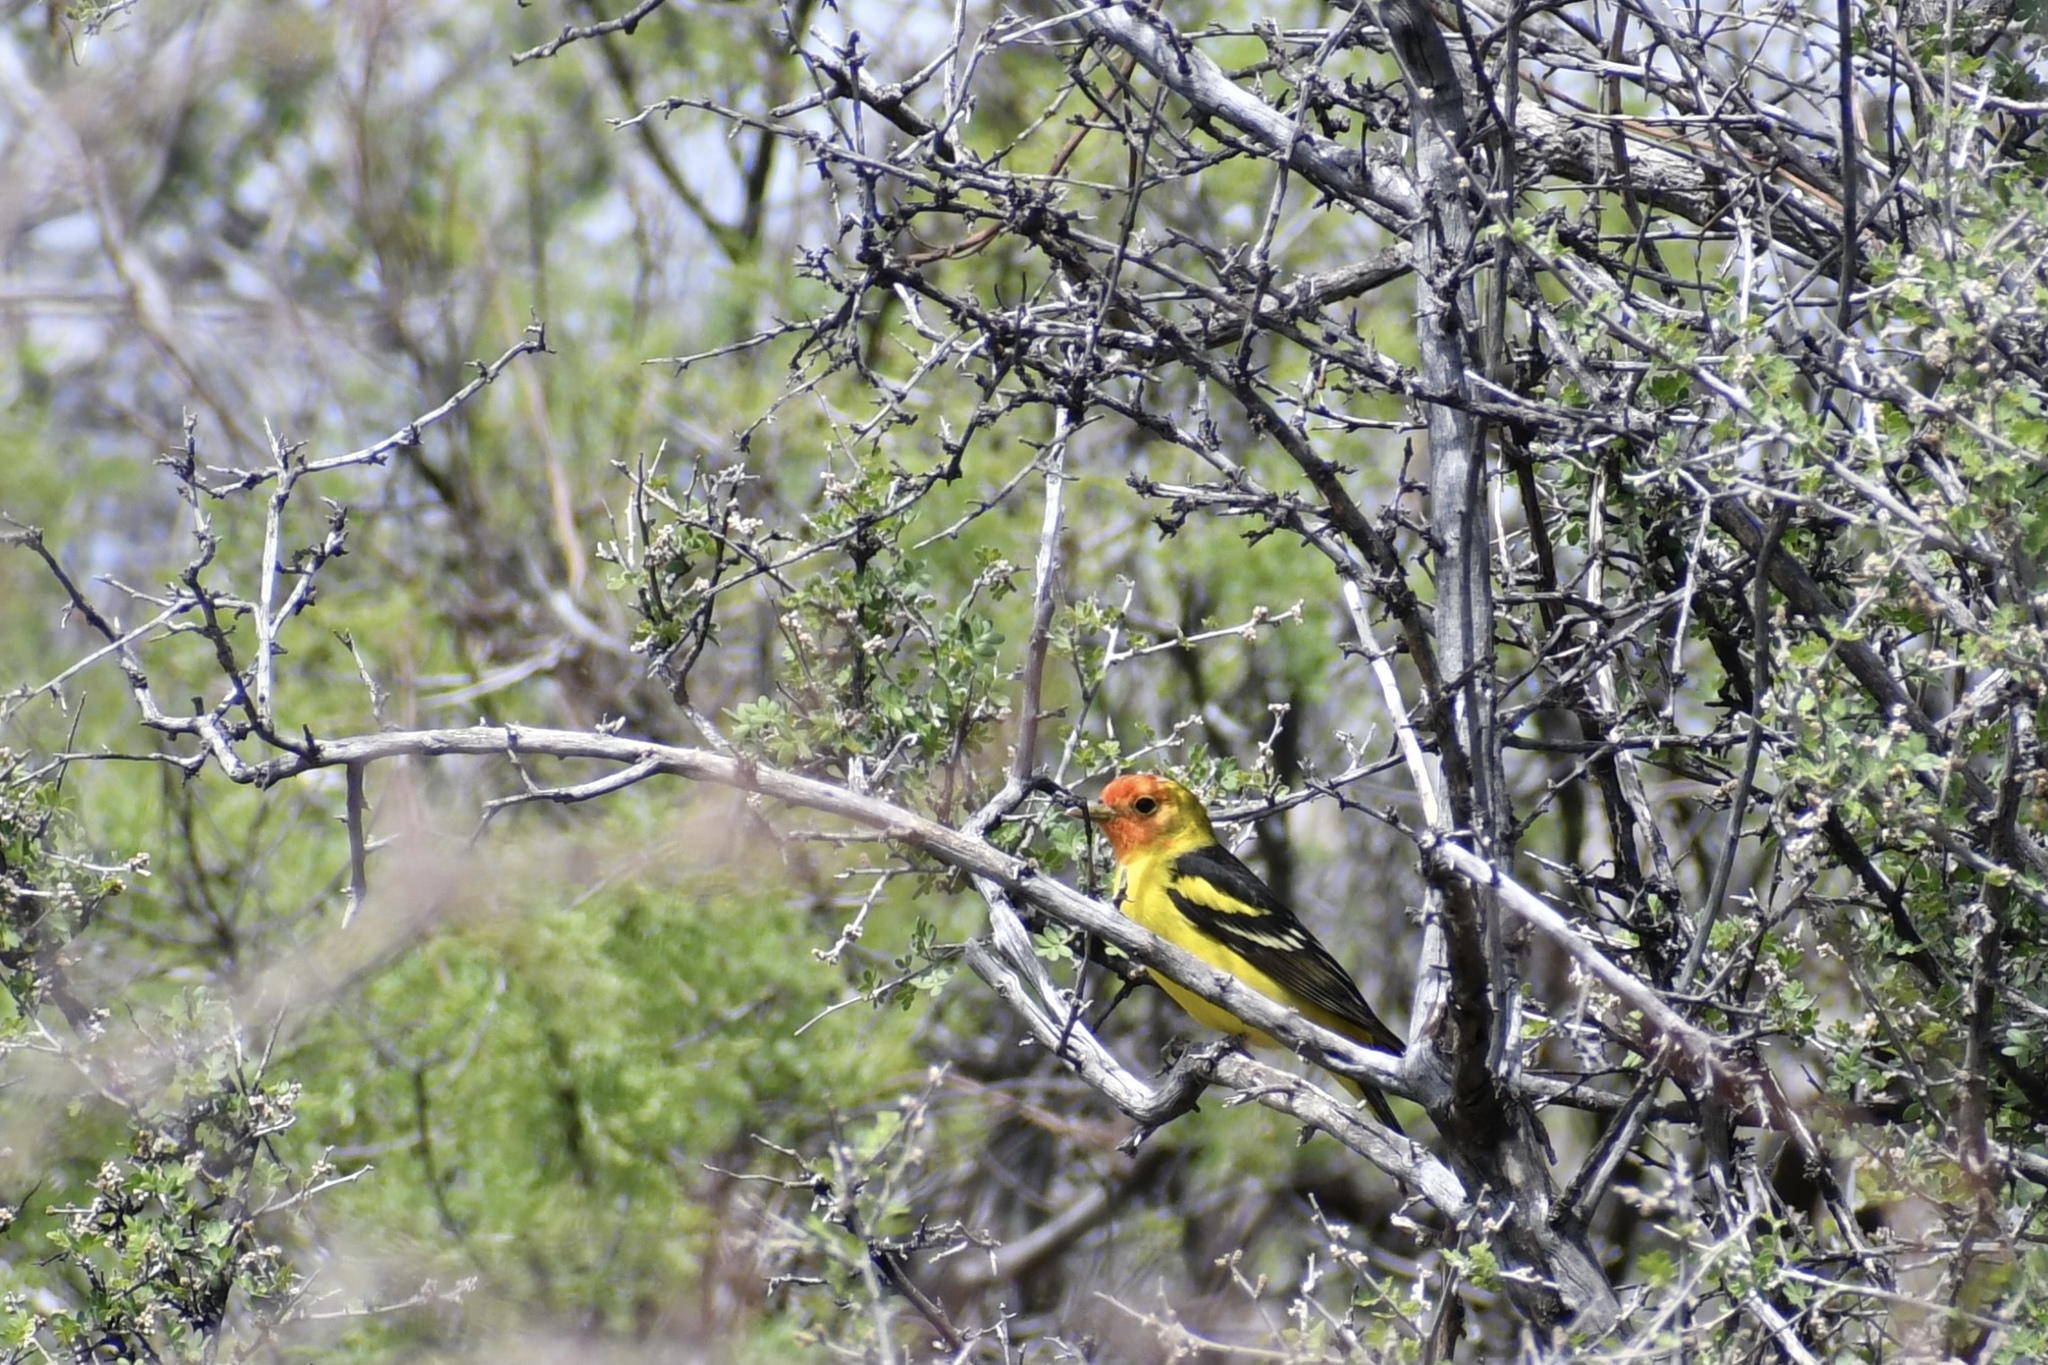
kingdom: Animalia
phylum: Chordata
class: Aves
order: Passeriformes
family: Cardinalidae
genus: Piranga
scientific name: Piranga ludoviciana
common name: Western tanager
